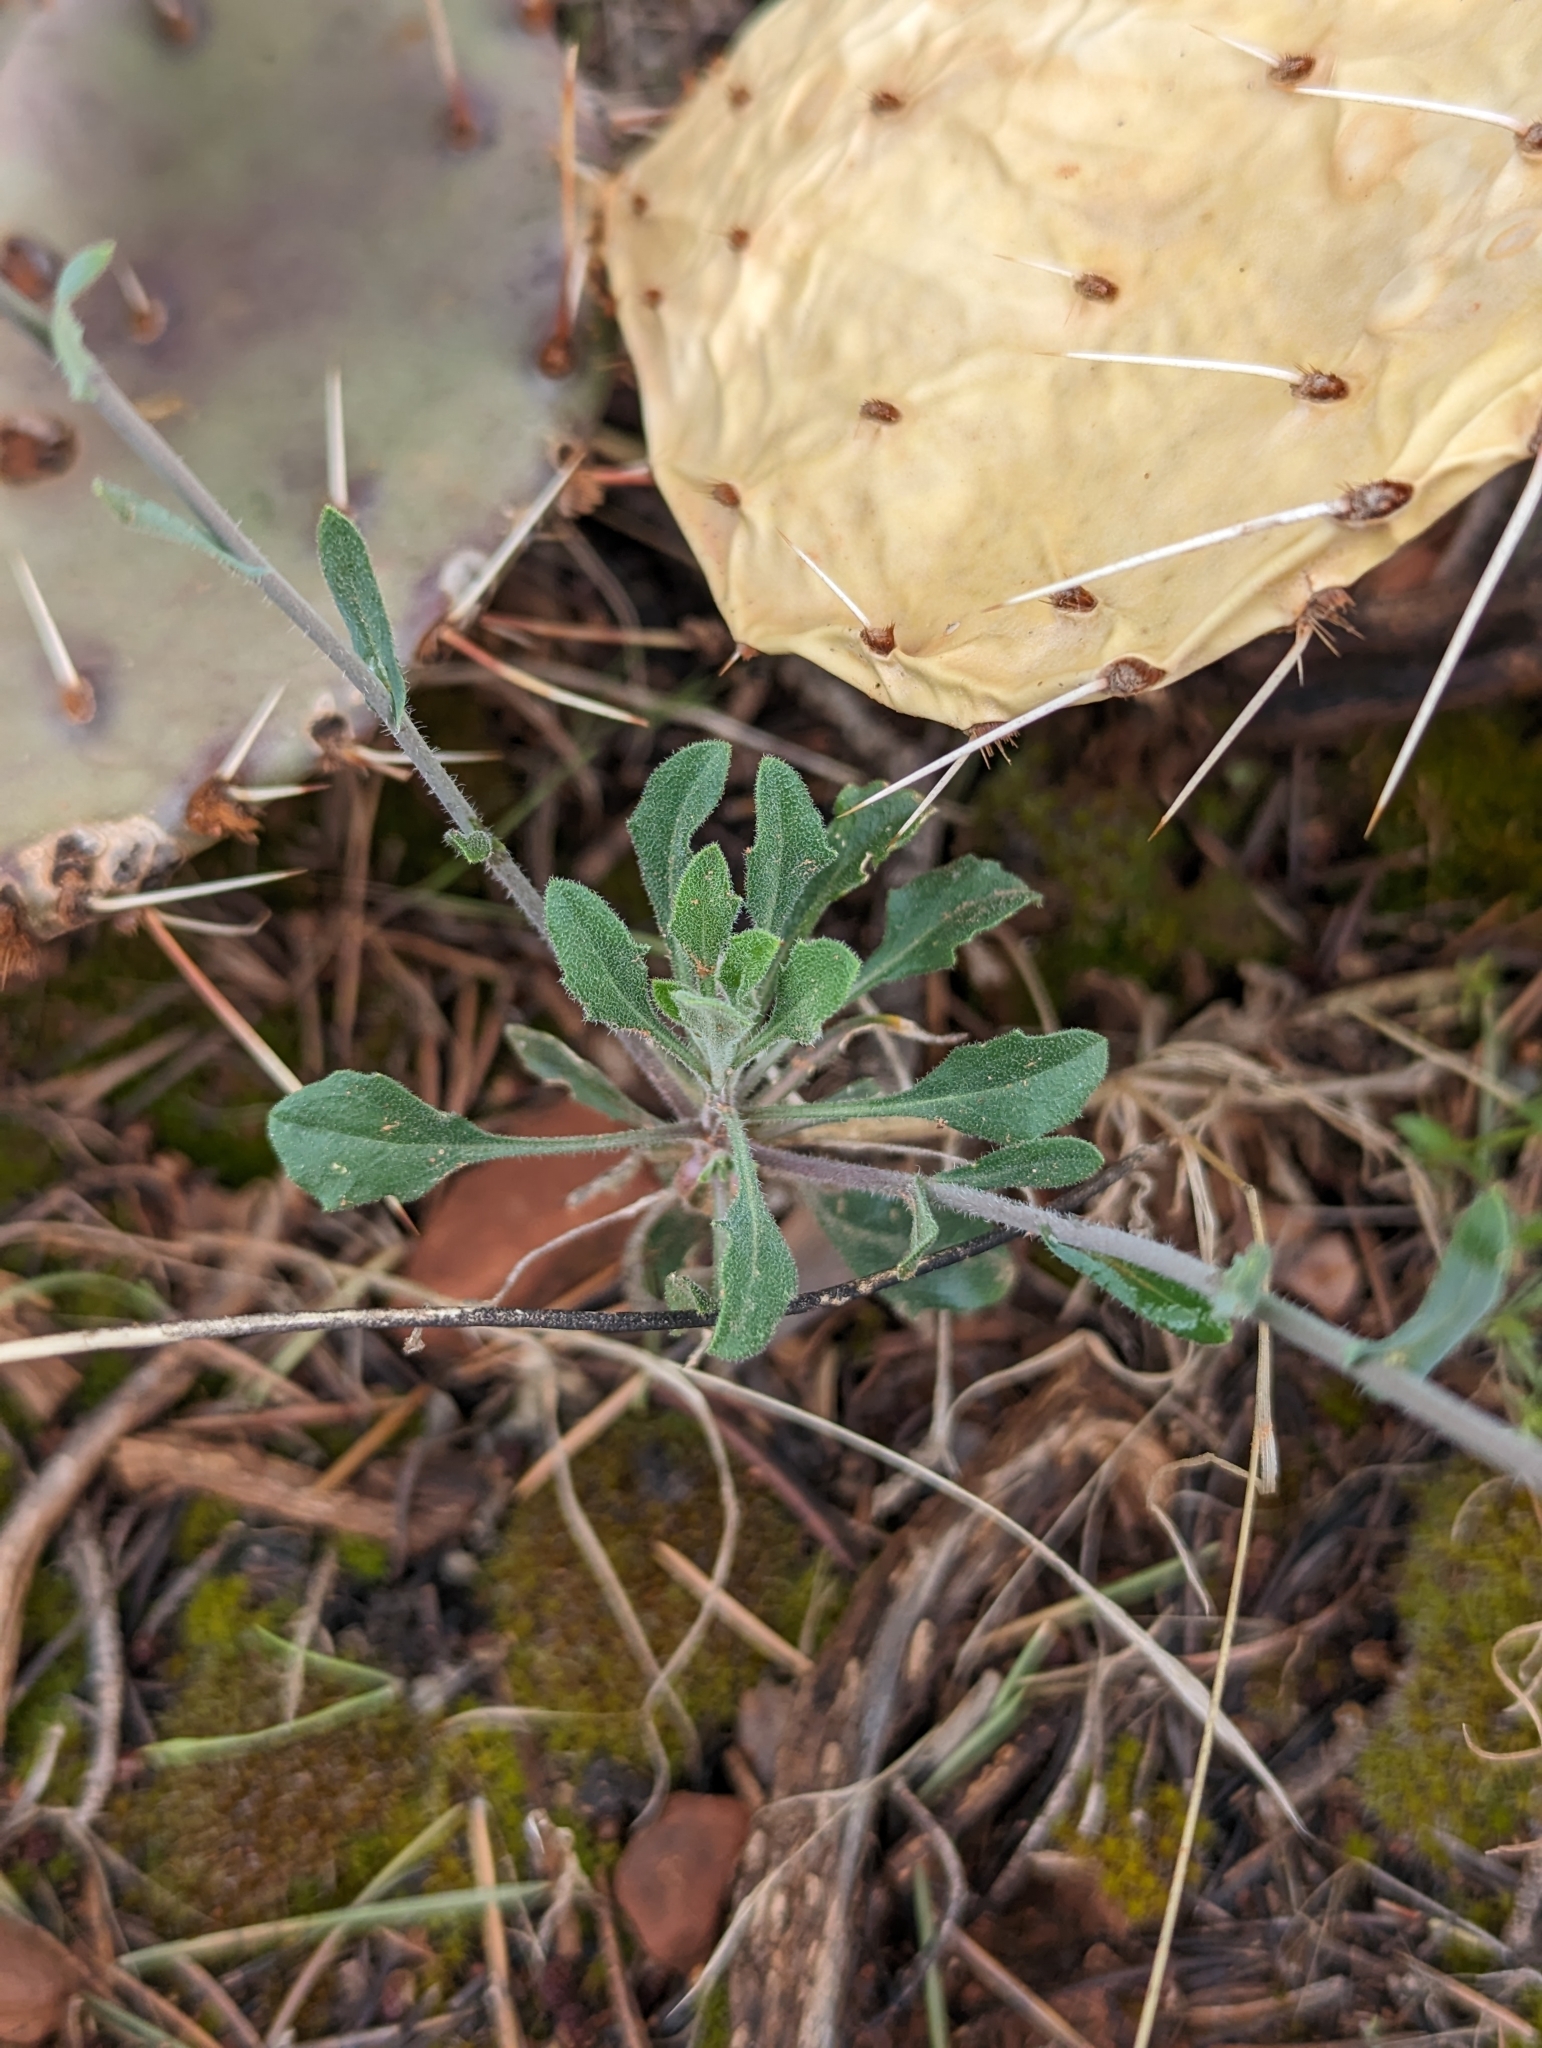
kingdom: Plantae
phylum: Tracheophyta
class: Magnoliopsida
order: Brassicales
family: Brassicaceae
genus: Boechera
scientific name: Boechera perennans
